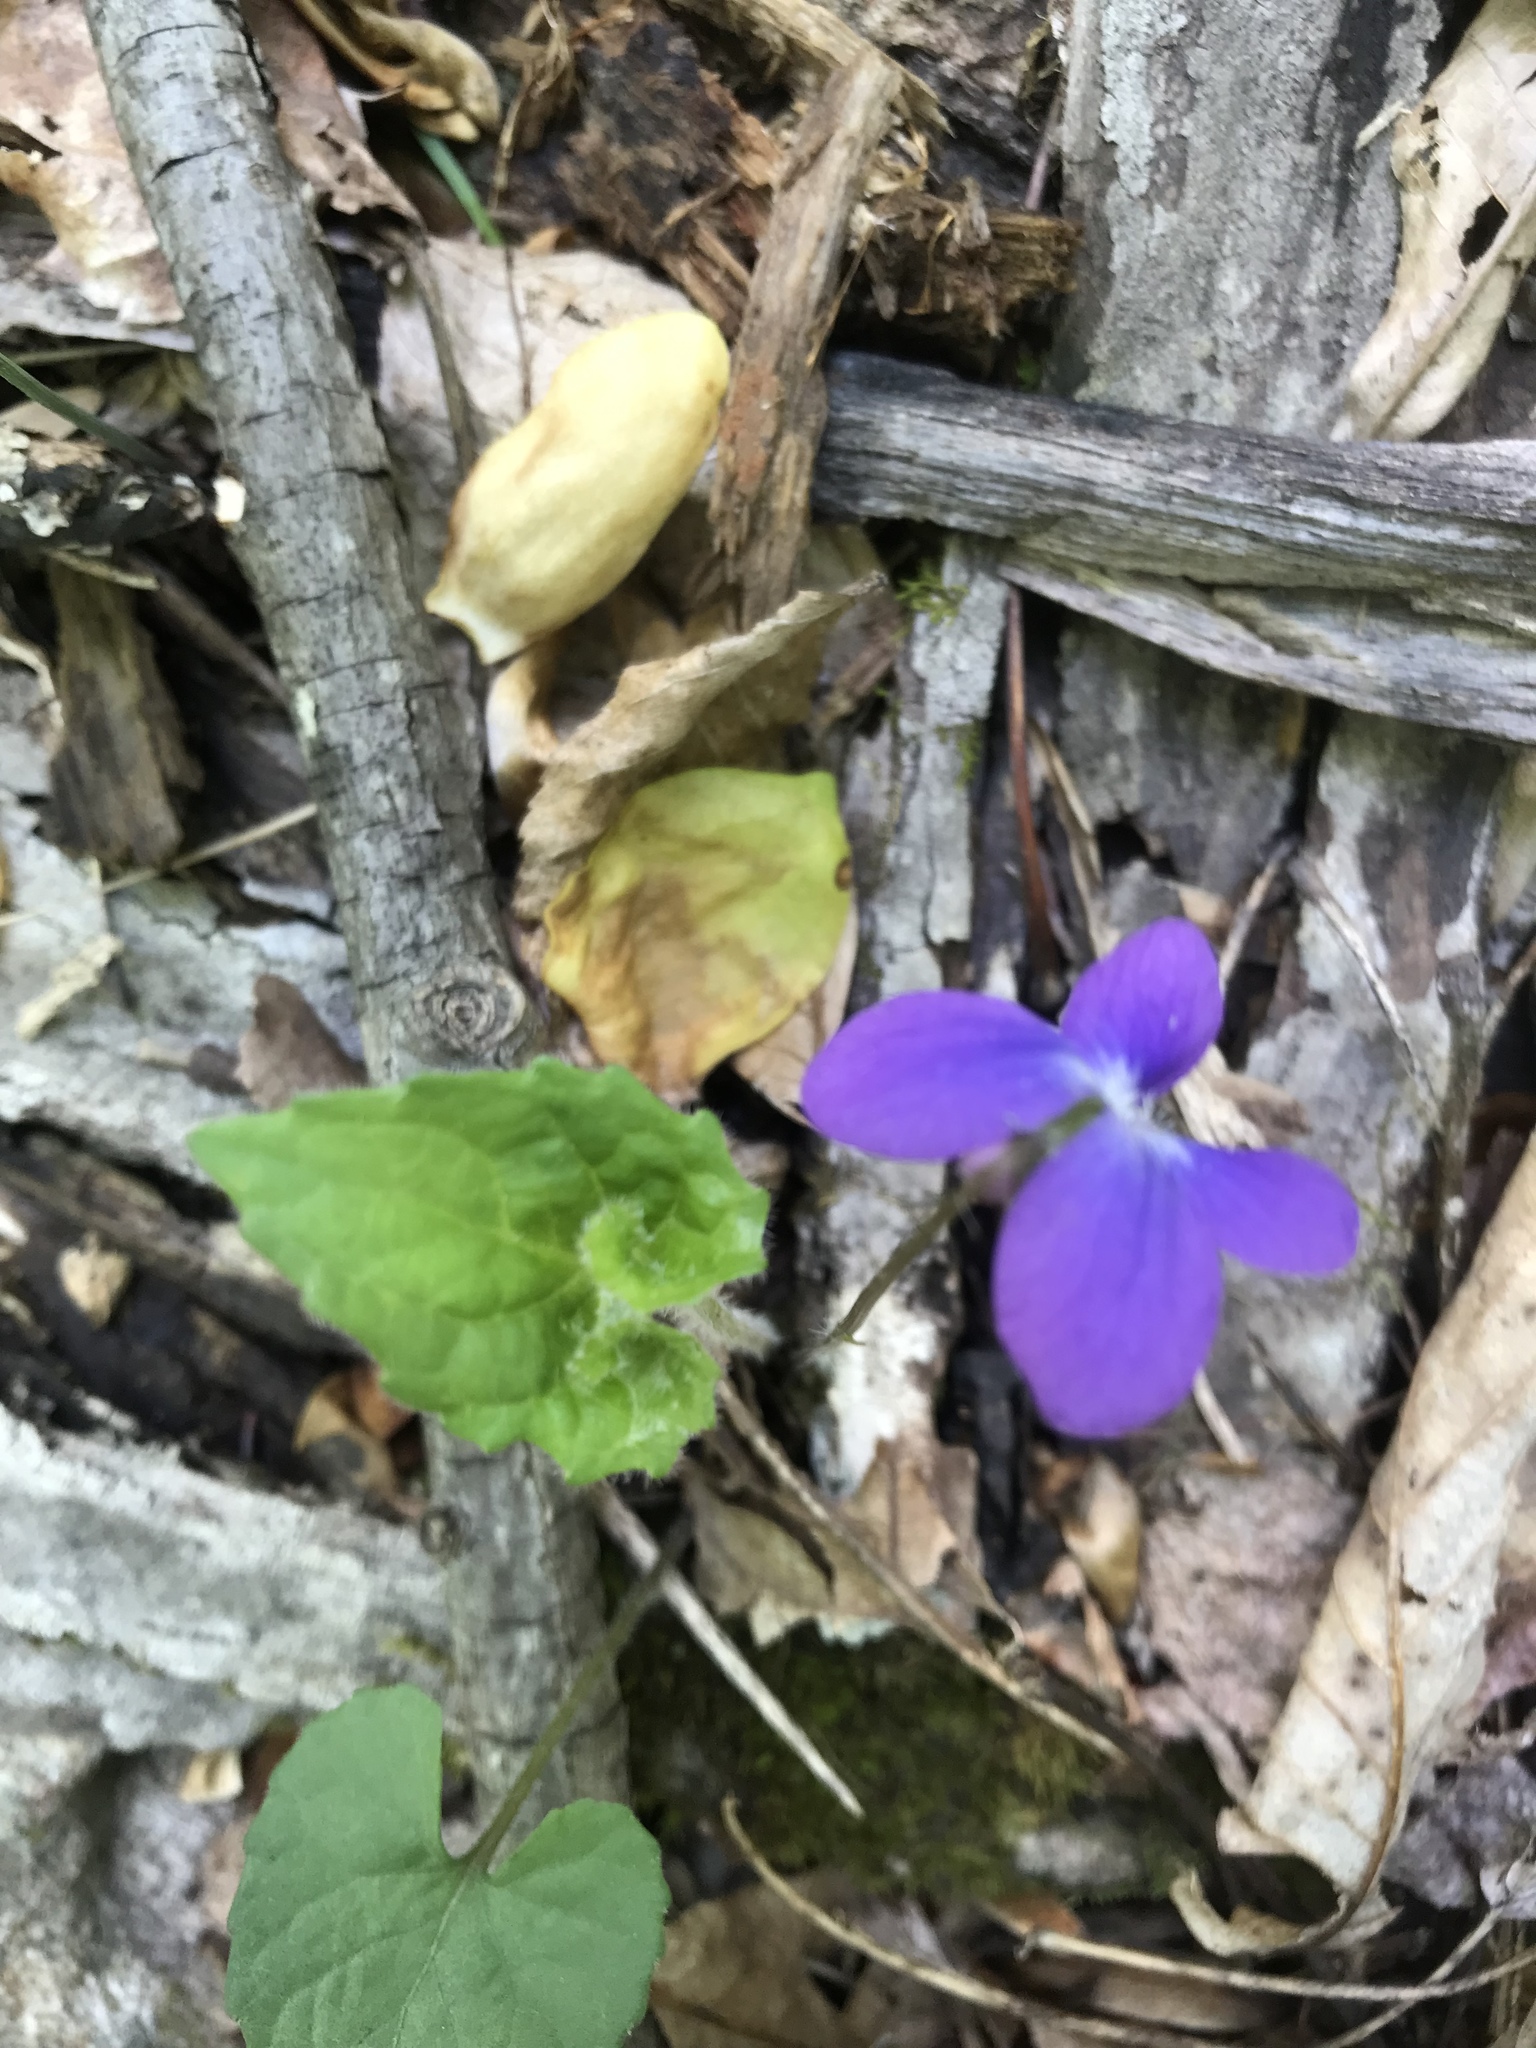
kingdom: Plantae
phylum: Tracheophyta
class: Magnoliopsida
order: Malpighiales
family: Violaceae
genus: Viola
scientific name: Viola sororia
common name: Dooryard violet
